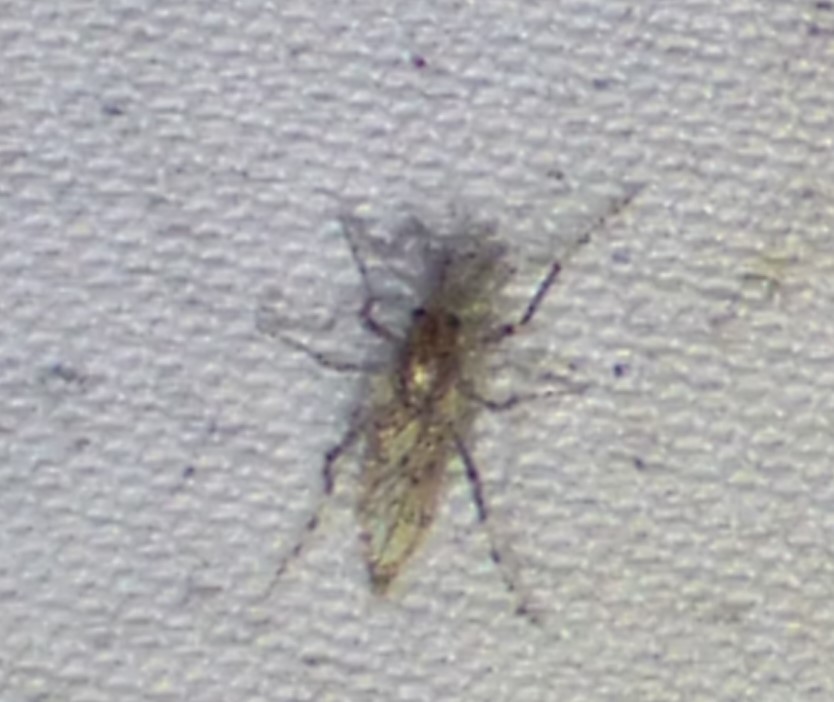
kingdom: Animalia
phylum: Arthropoda
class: Insecta
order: Diptera
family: Chaoboridae
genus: Chaoborus
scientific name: Chaoborus punctipennis
